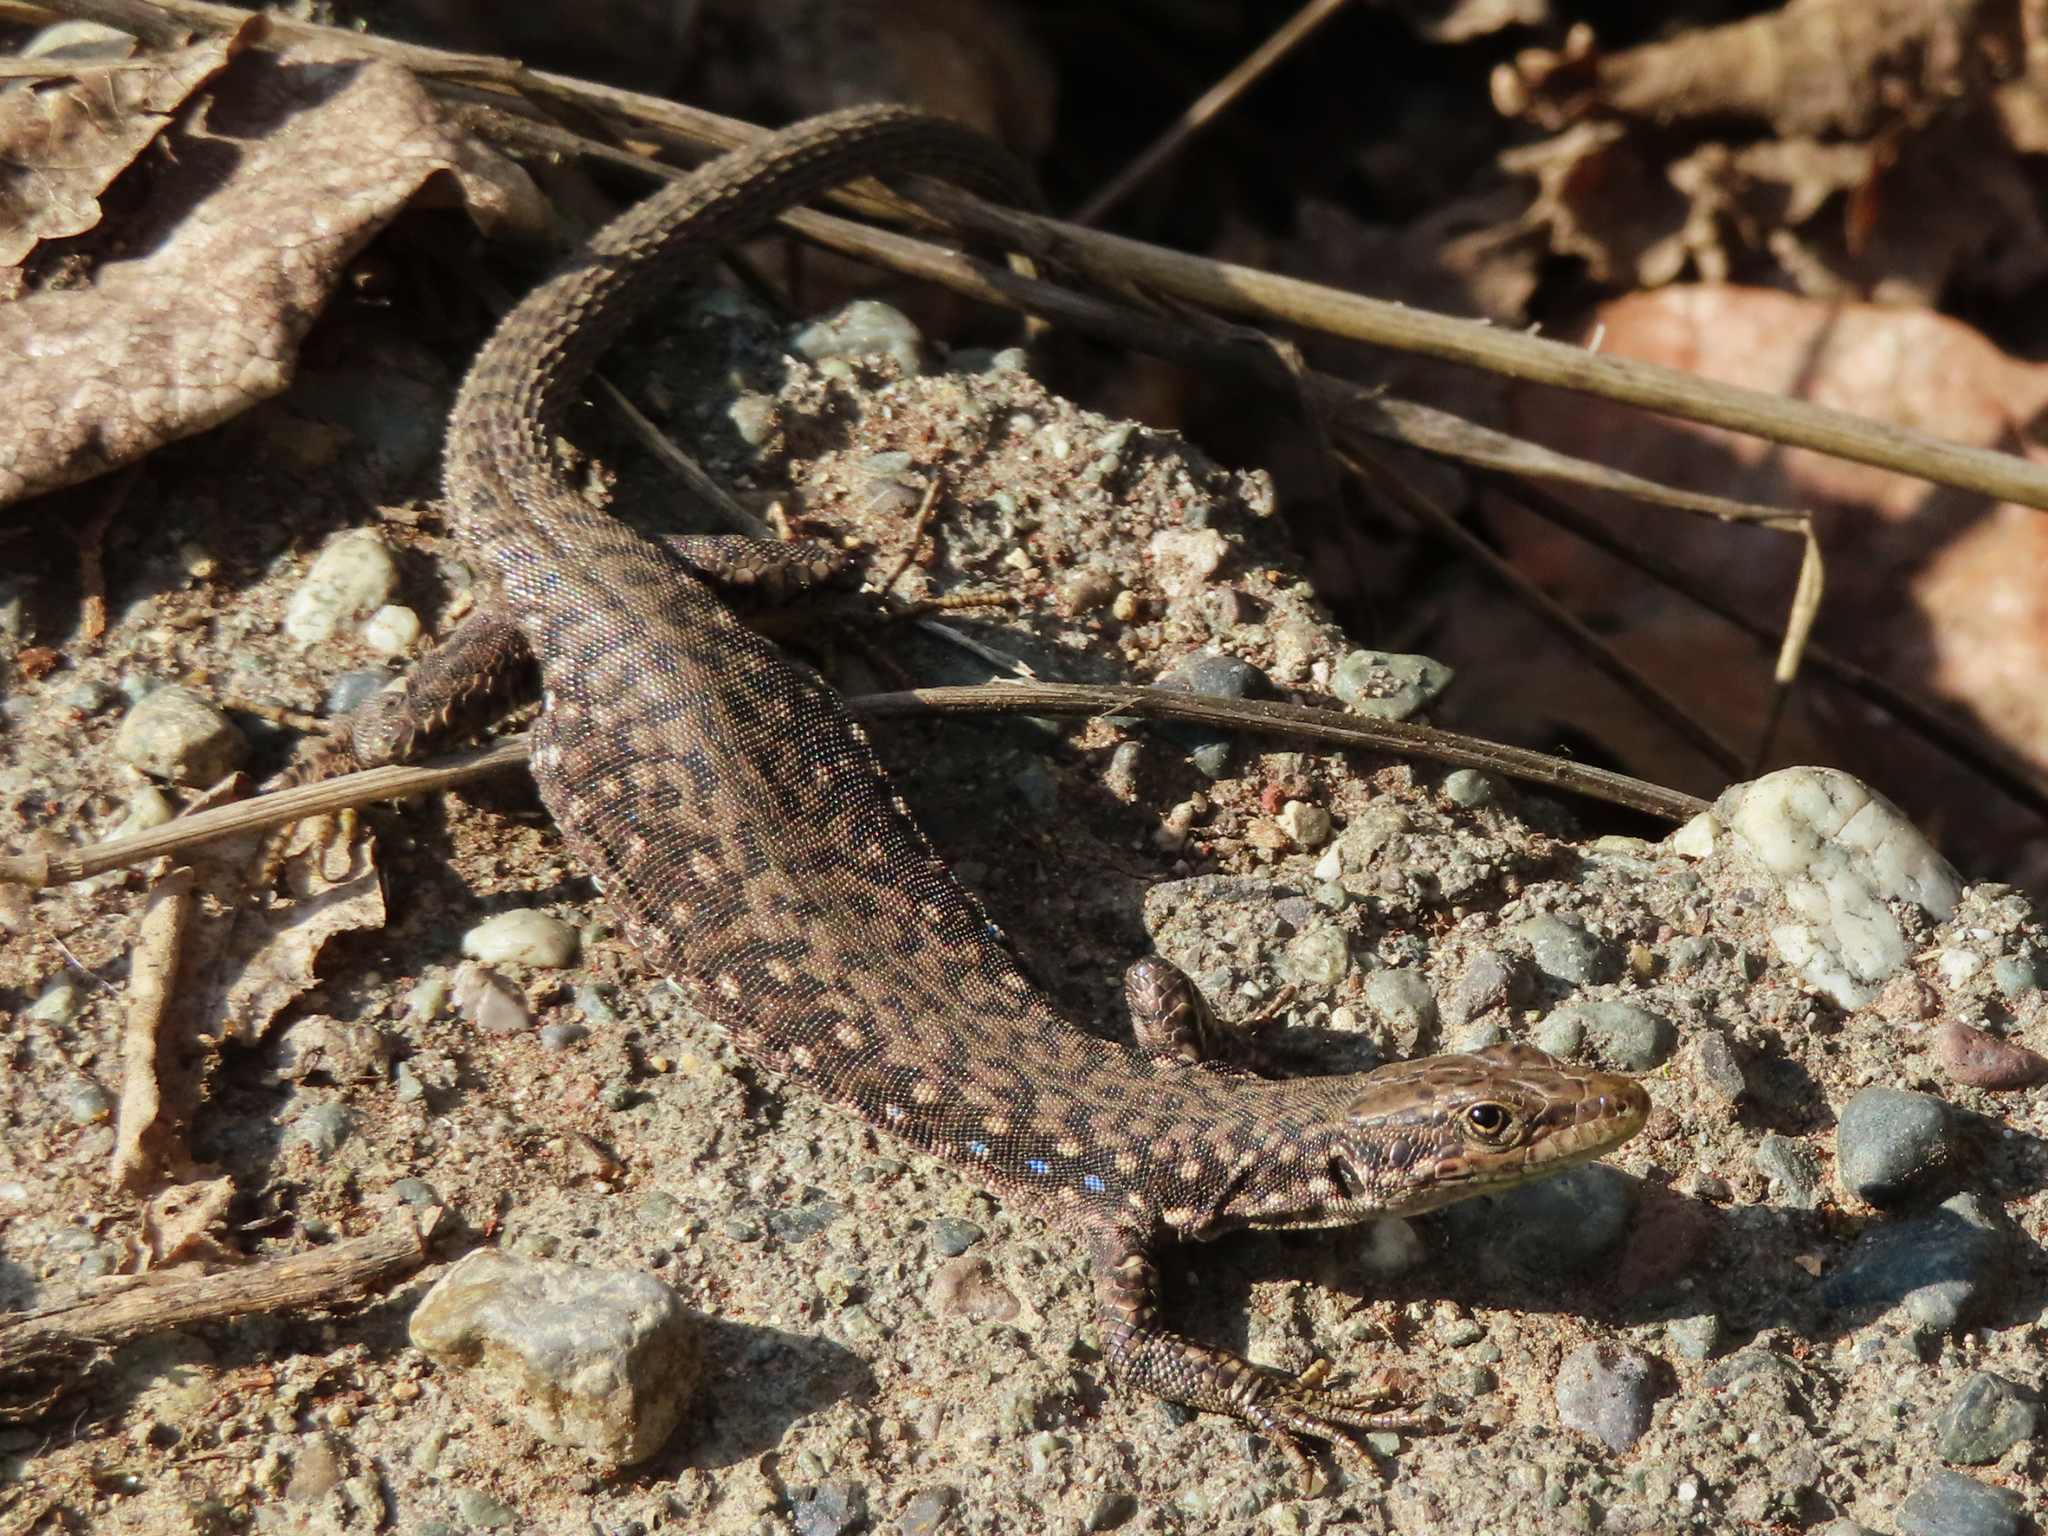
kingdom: Animalia
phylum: Chordata
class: Squamata
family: Lacertidae
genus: Darevskia
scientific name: Darevskia
